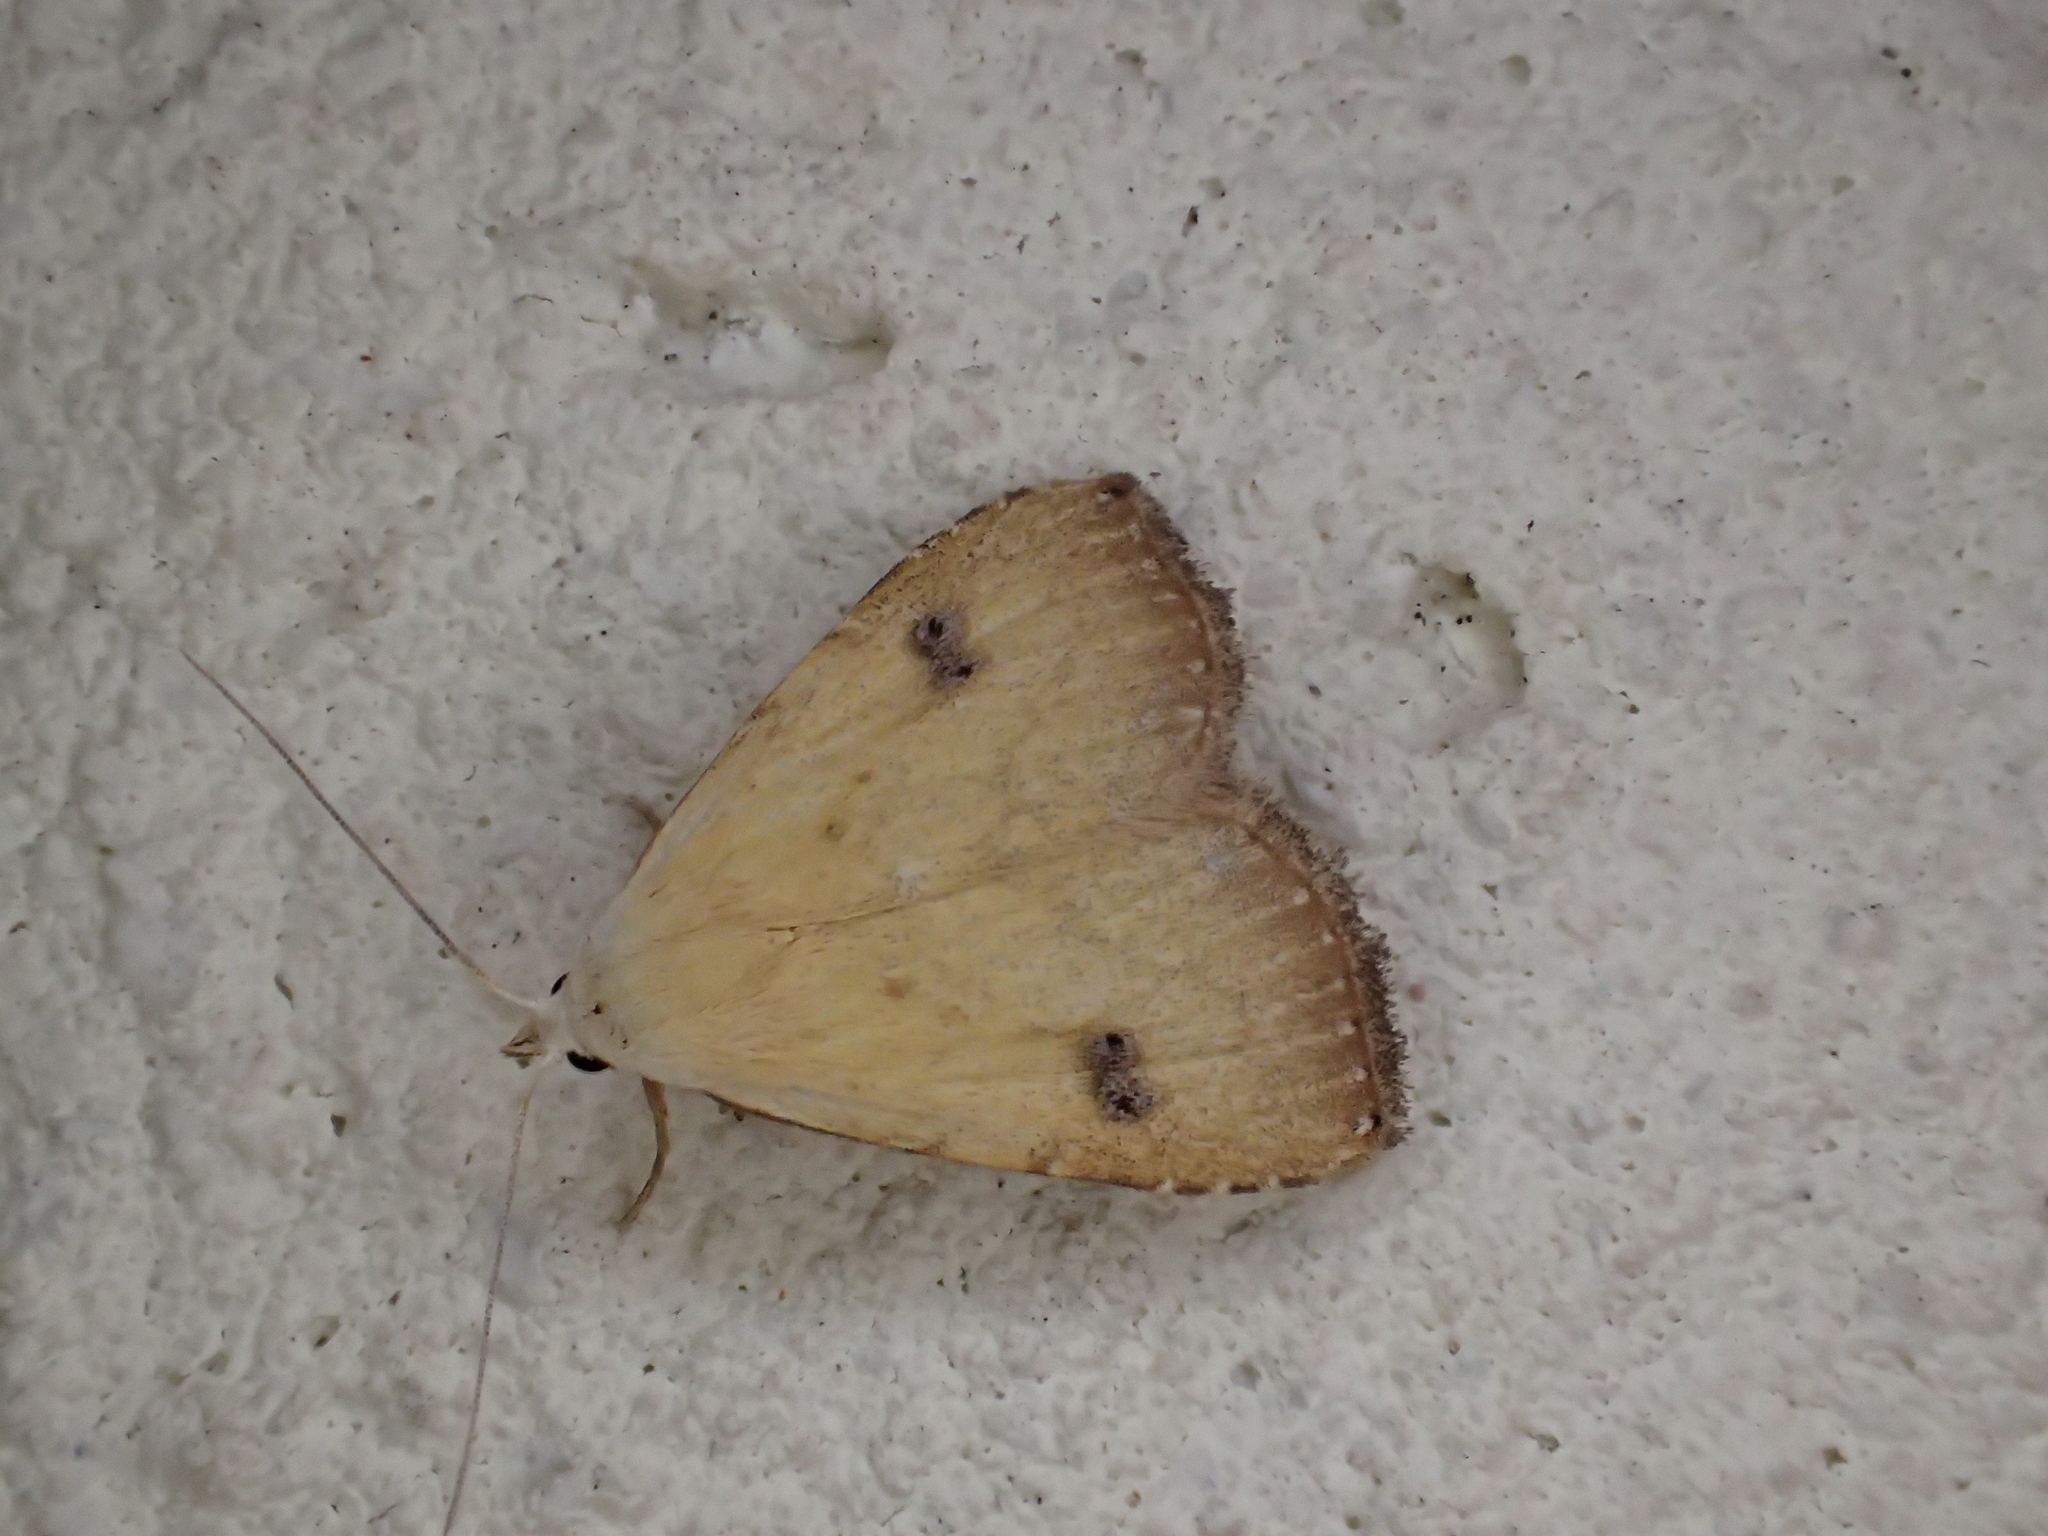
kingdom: Animalia
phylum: Arthropoda
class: Insecta
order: Lepidoptera
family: Erebidae
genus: Rivula
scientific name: Rivula sericealis
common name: Straw dot
